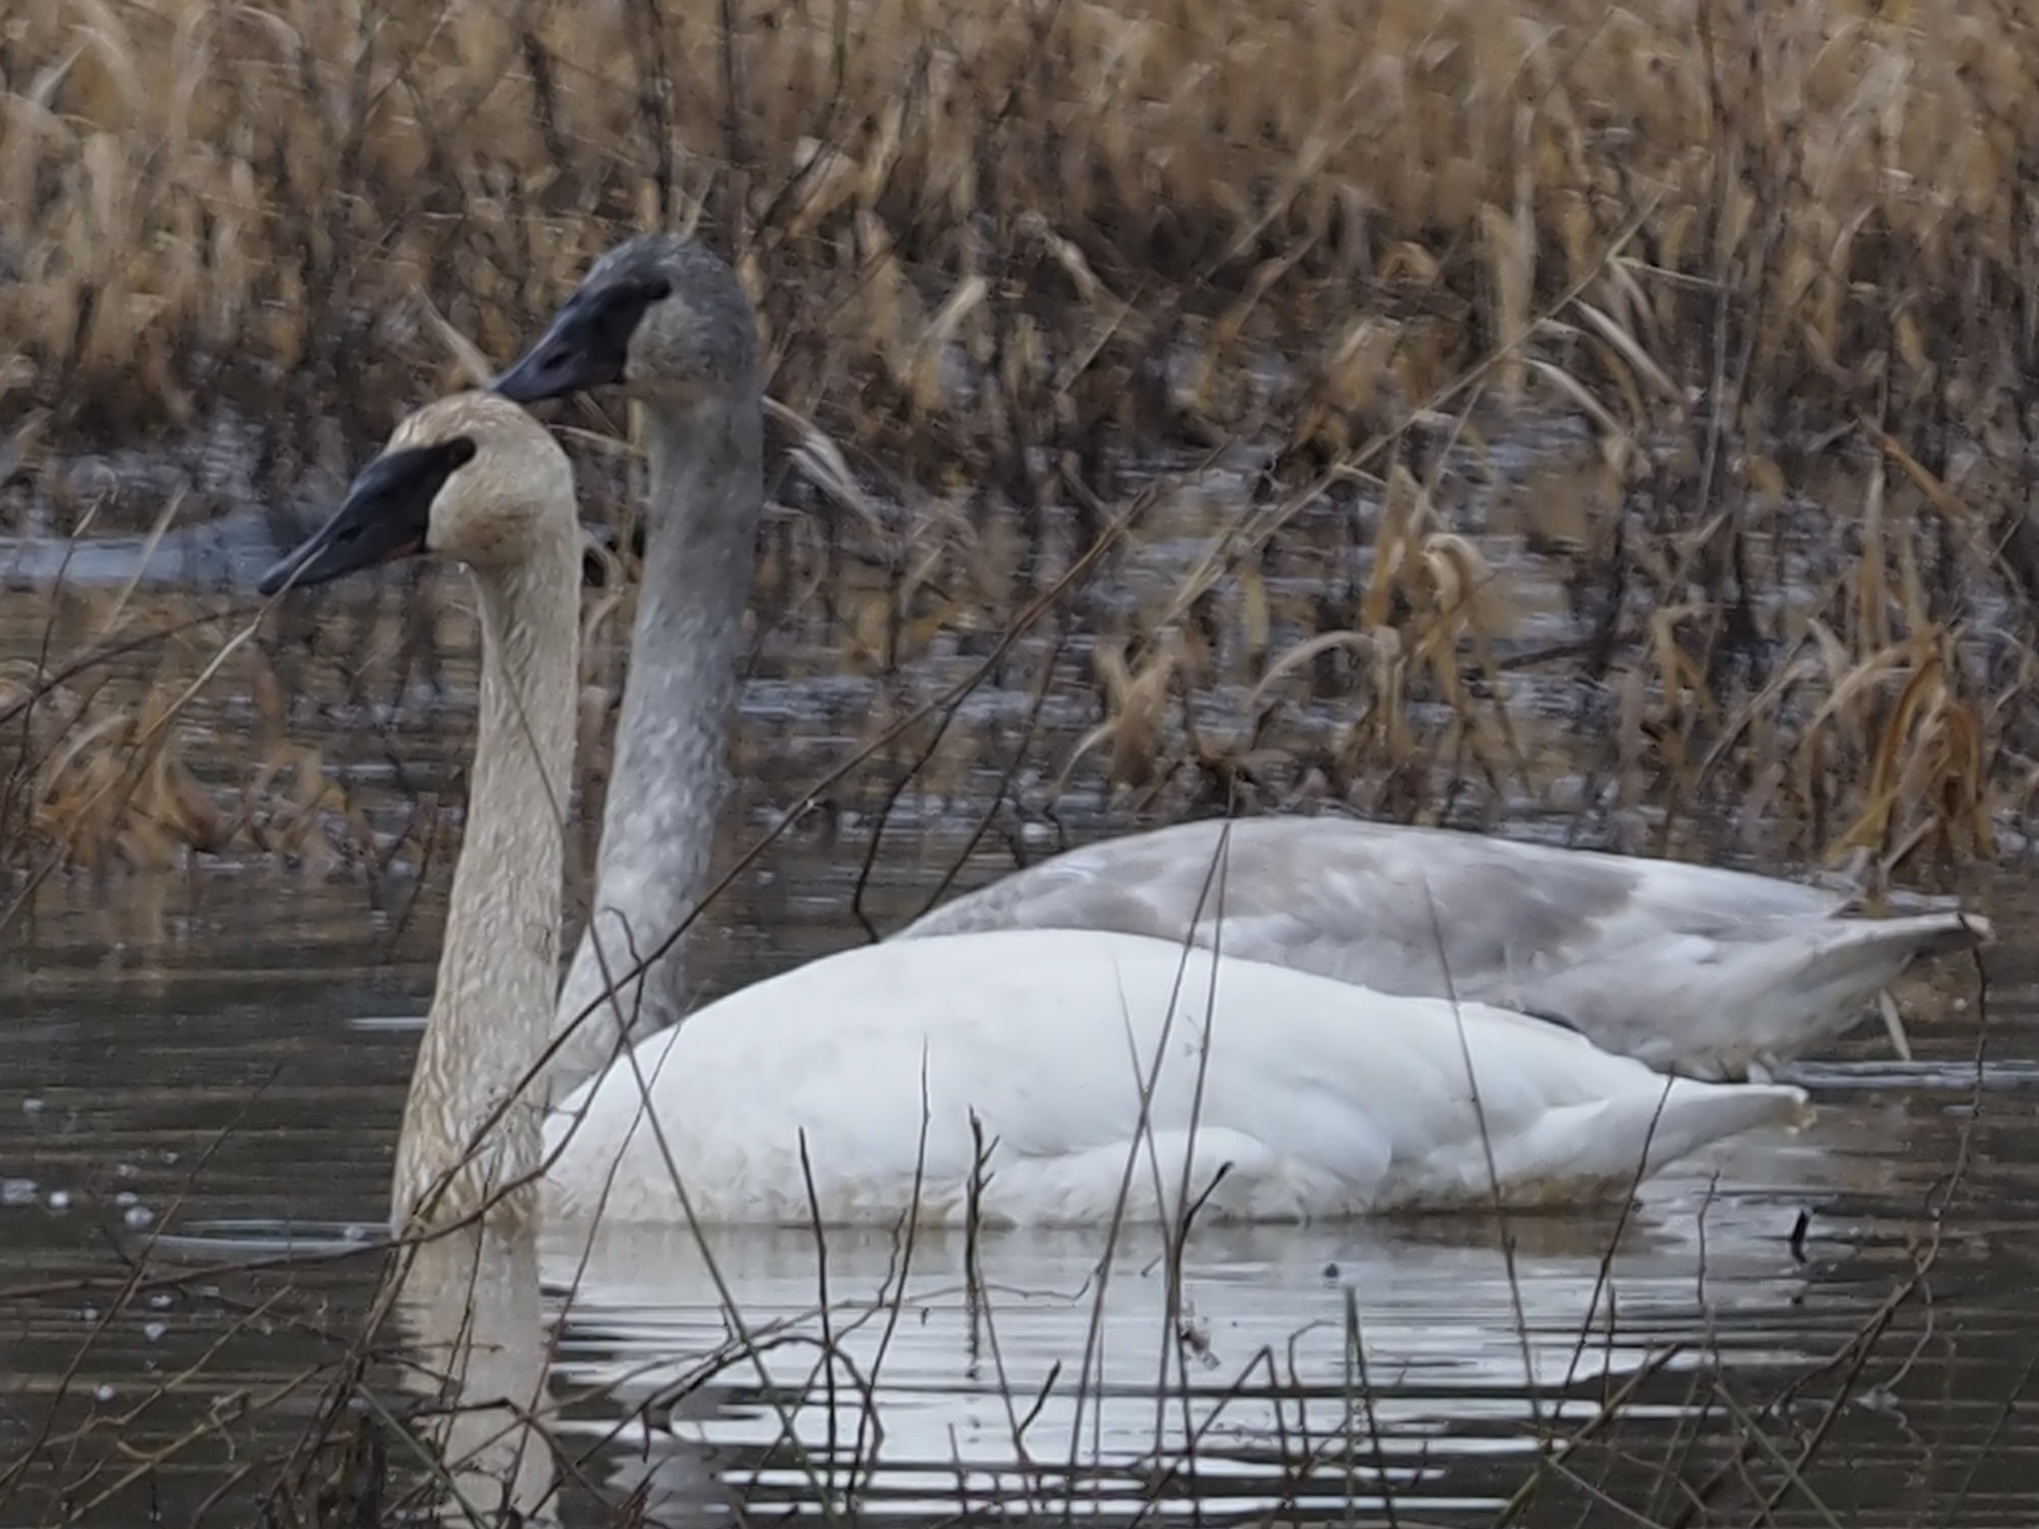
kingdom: Animalia
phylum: Chordata
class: Aves
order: Anseriformes
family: Anatidae
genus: Cygnus
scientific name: Cygnus buccinator
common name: Trumpeter swan
